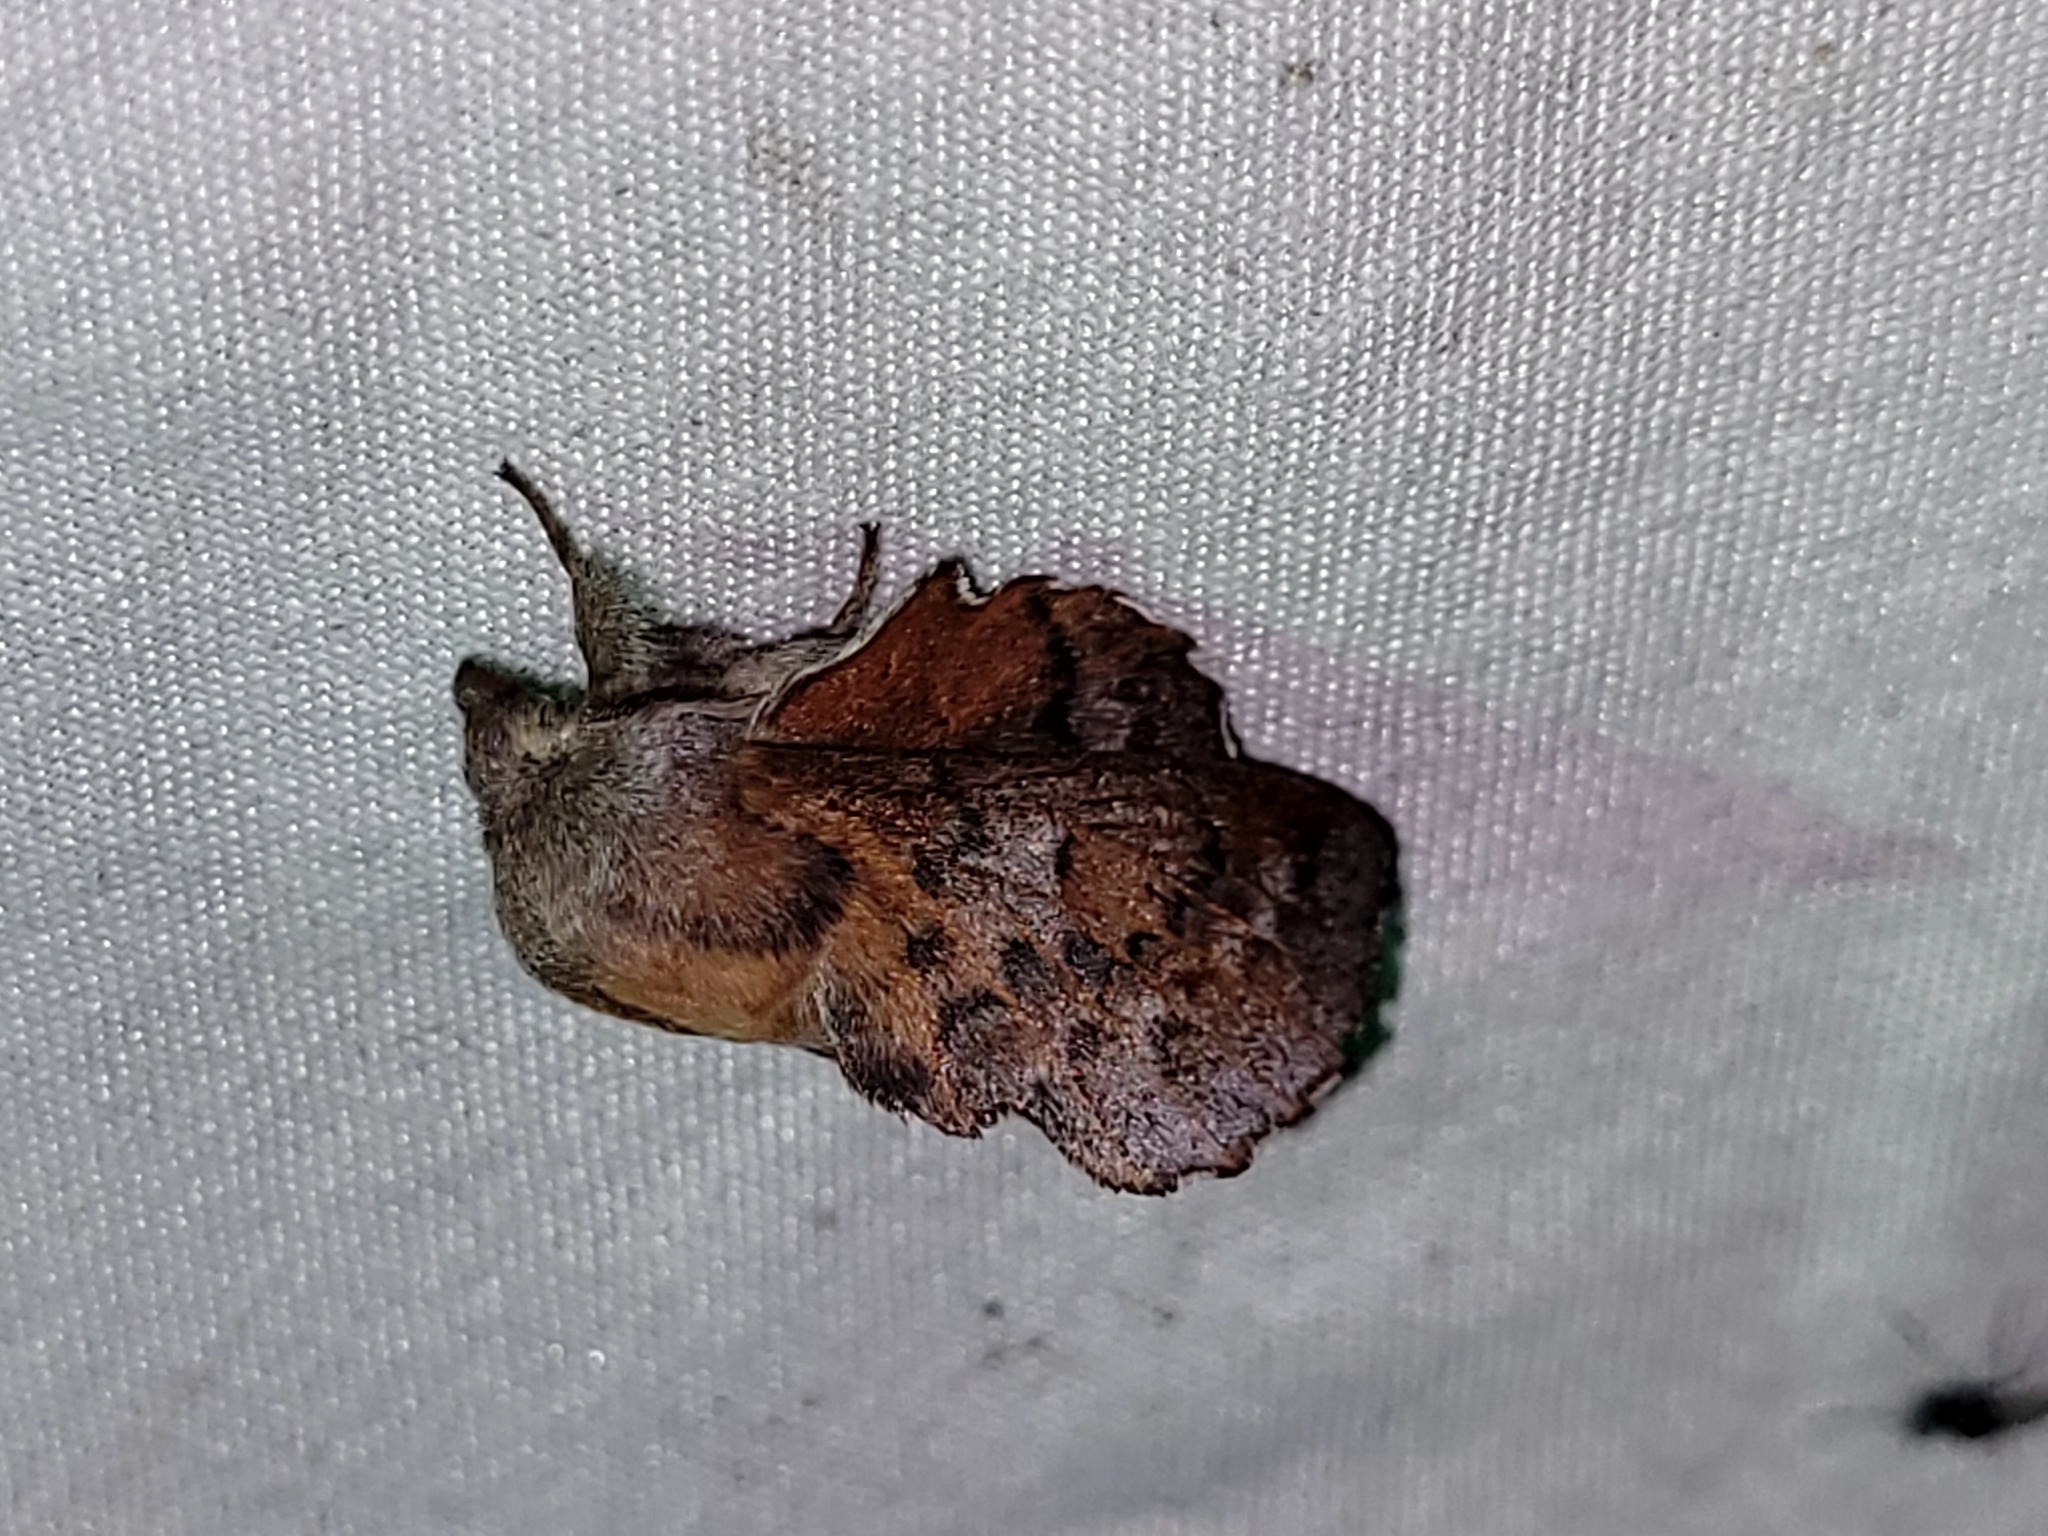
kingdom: Animalia
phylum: Arthropoda
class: Insecta
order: Lepidoptera
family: Lasiocampidae
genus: Phyllodesma
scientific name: Phyllodesma americana
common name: American lappet moth
